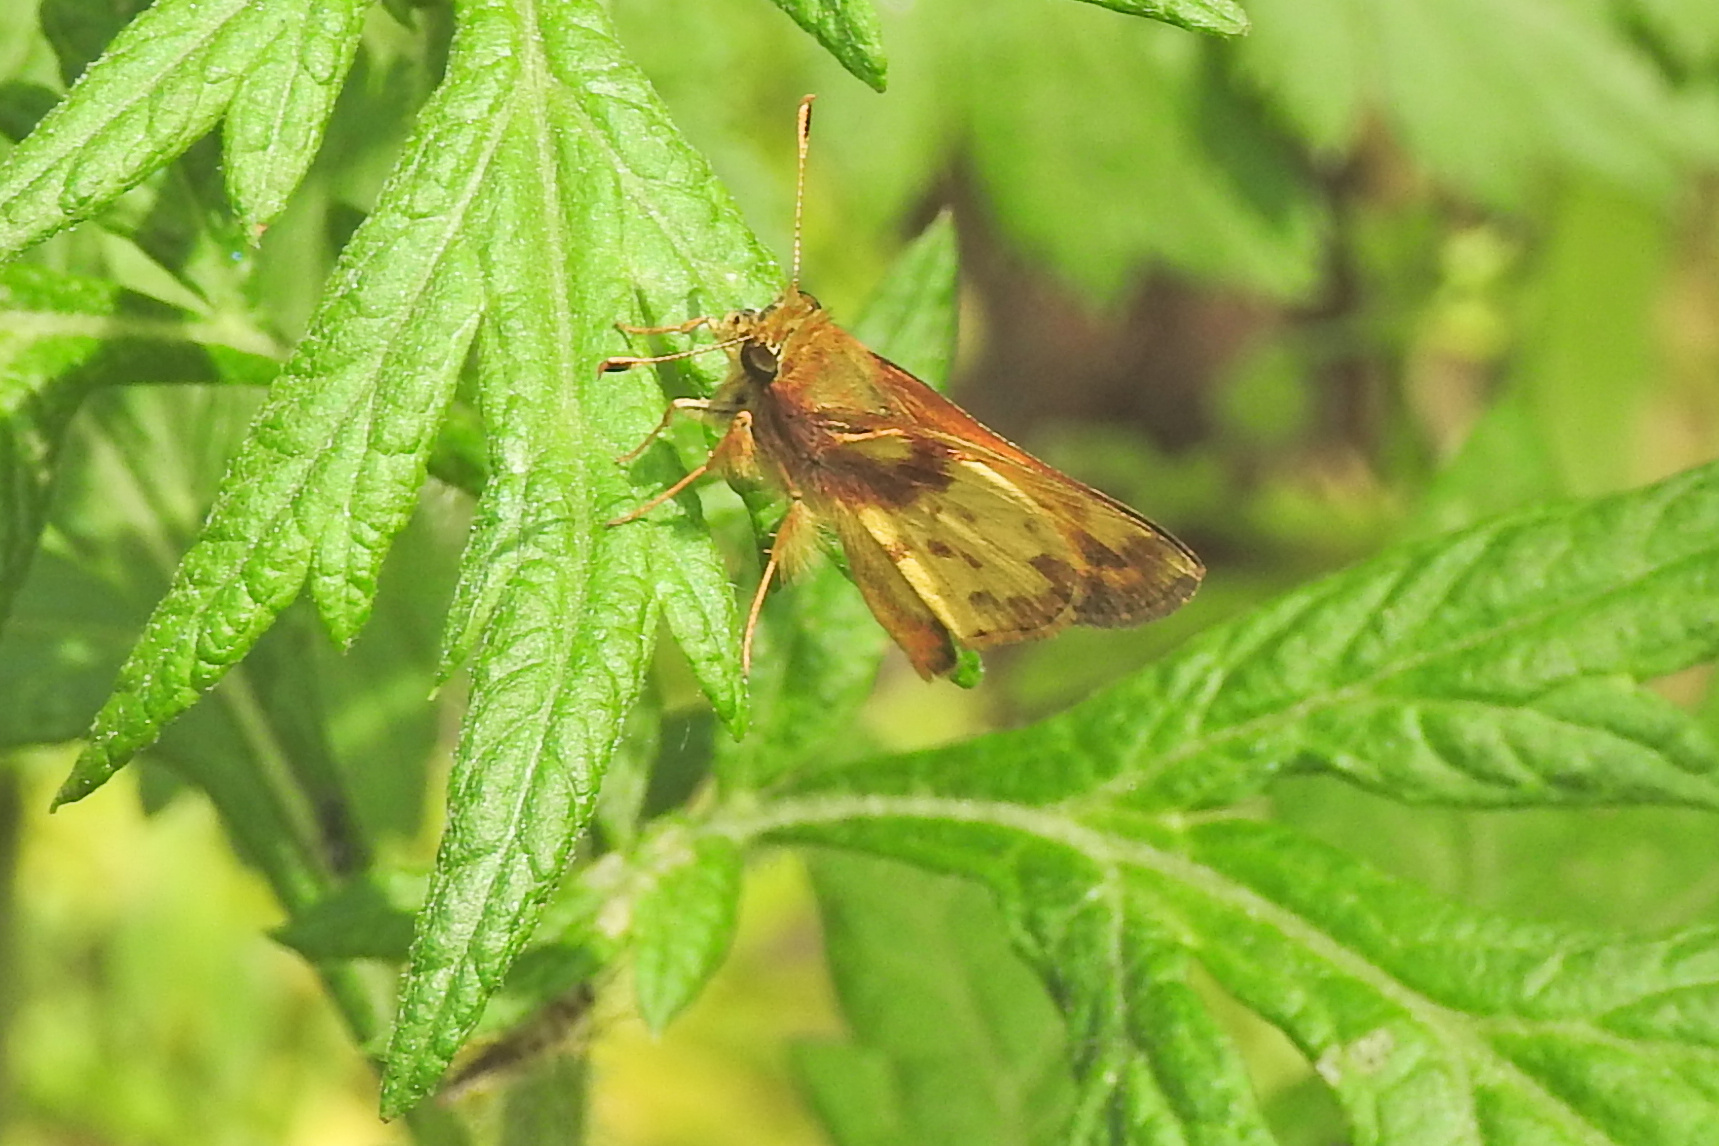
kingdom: Animalia
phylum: Arthropoda
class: Insecta
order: Lepidoptera
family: Hesperiidae
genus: Lon
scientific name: Lon zabulon
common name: Zabulon skipper
